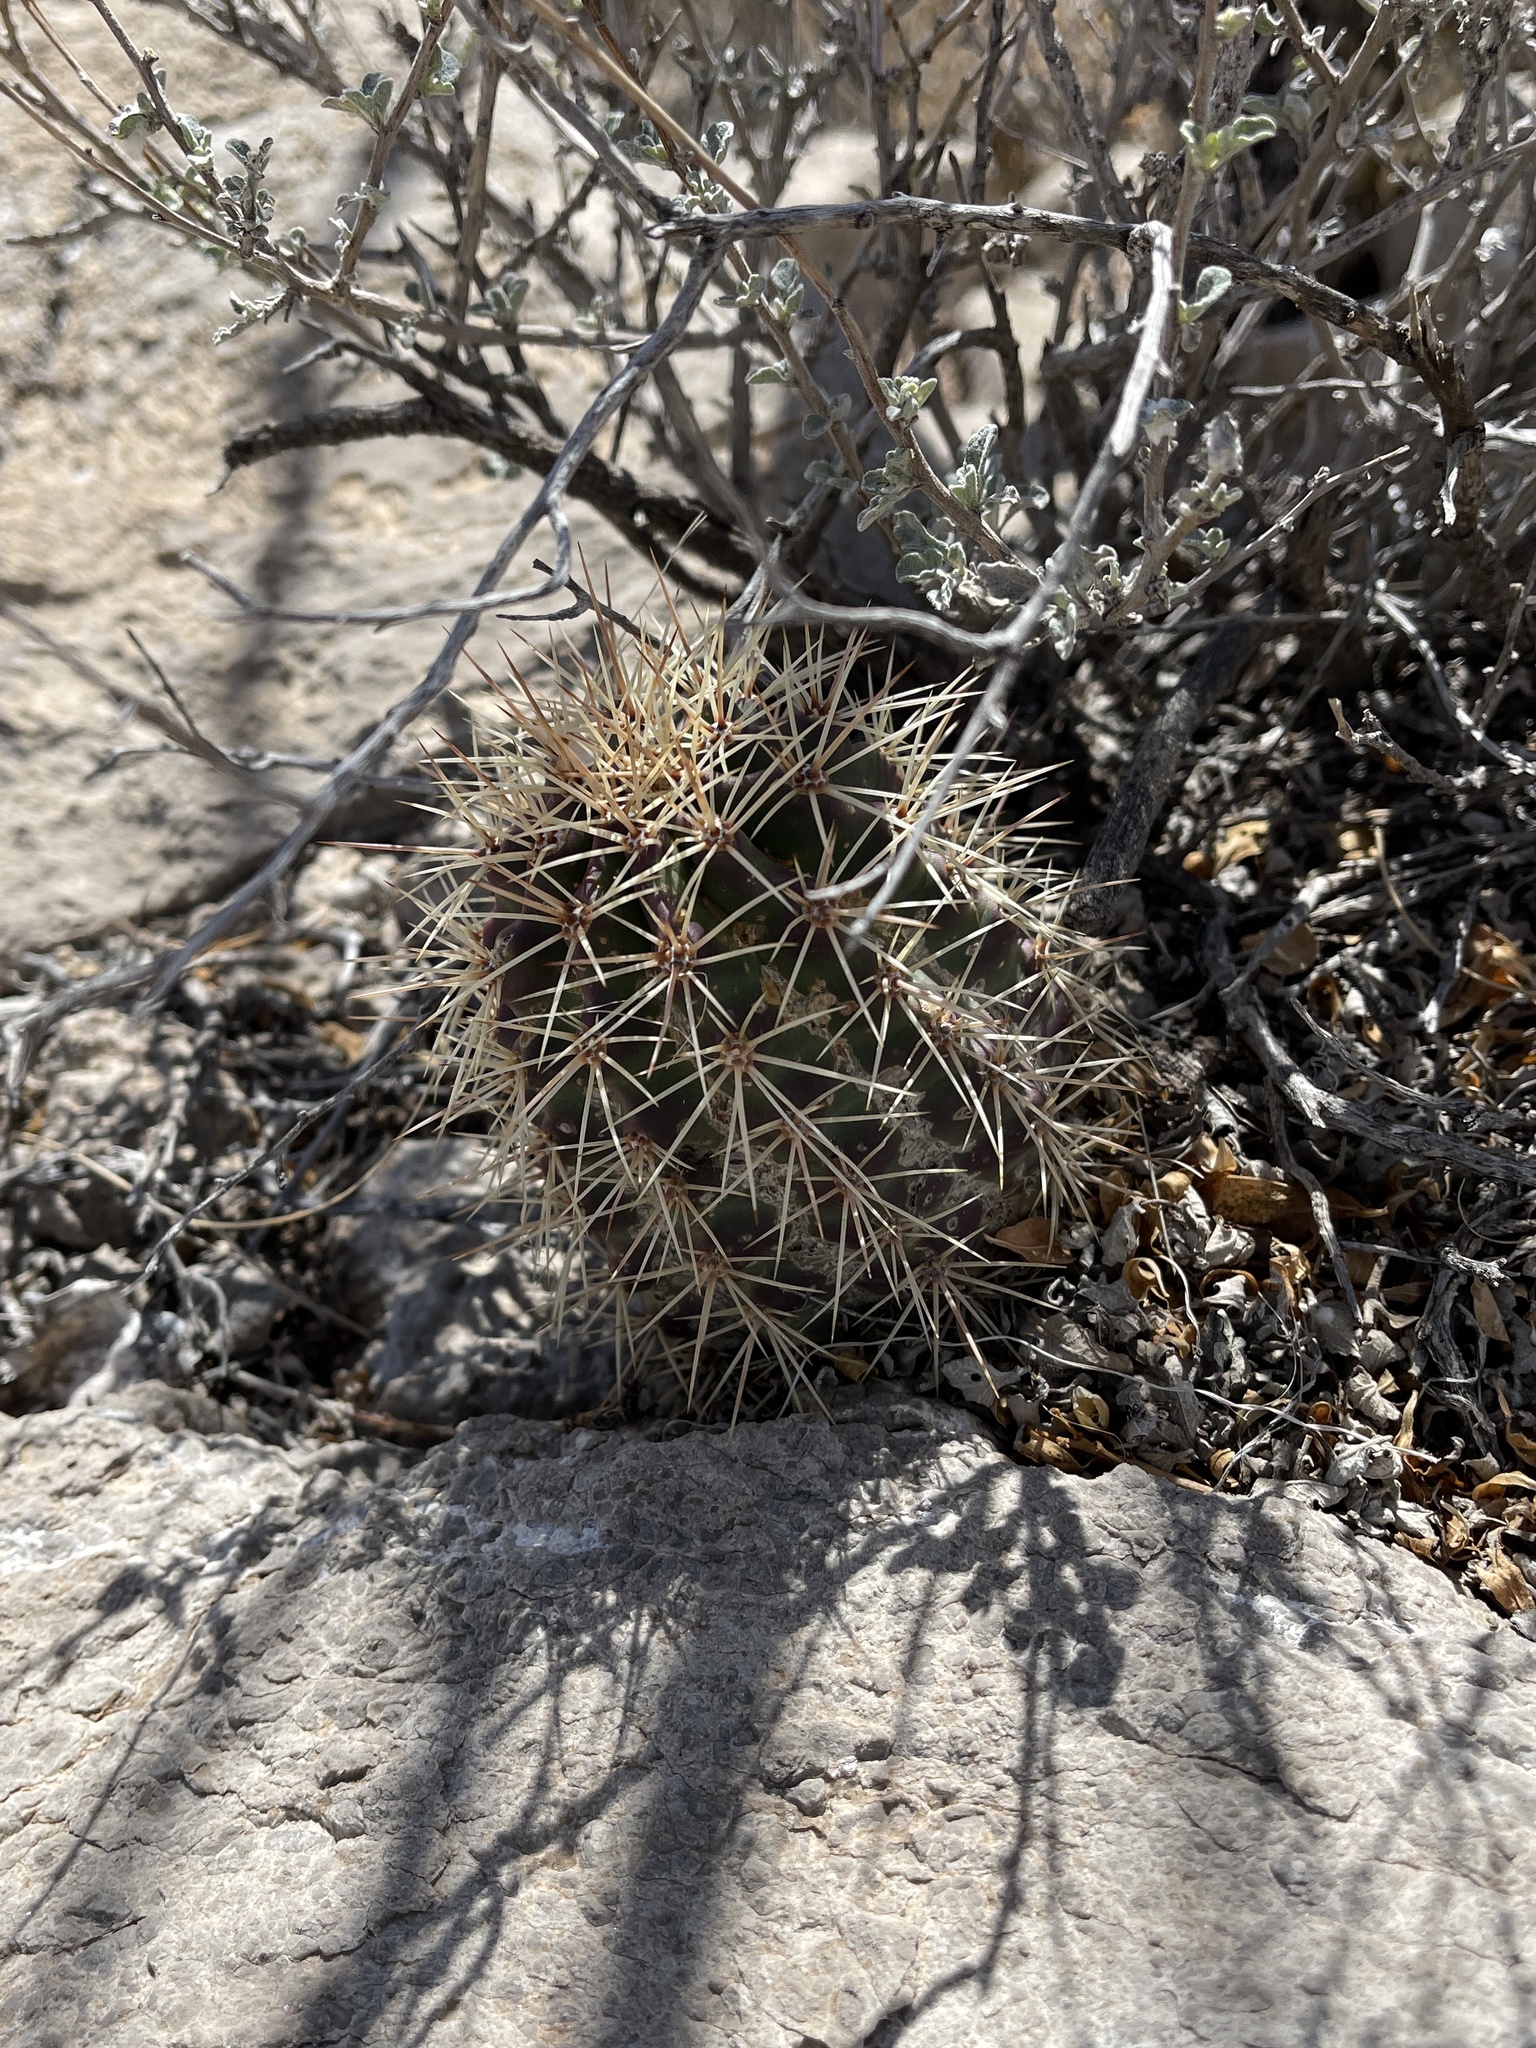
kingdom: Plantae
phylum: Tracheophyta
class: Magnoliopsida
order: Caryophyllales
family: Cactaceae
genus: Echinocereus
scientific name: Echinocereus coccineus
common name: Scarlet hedgehog cactus
